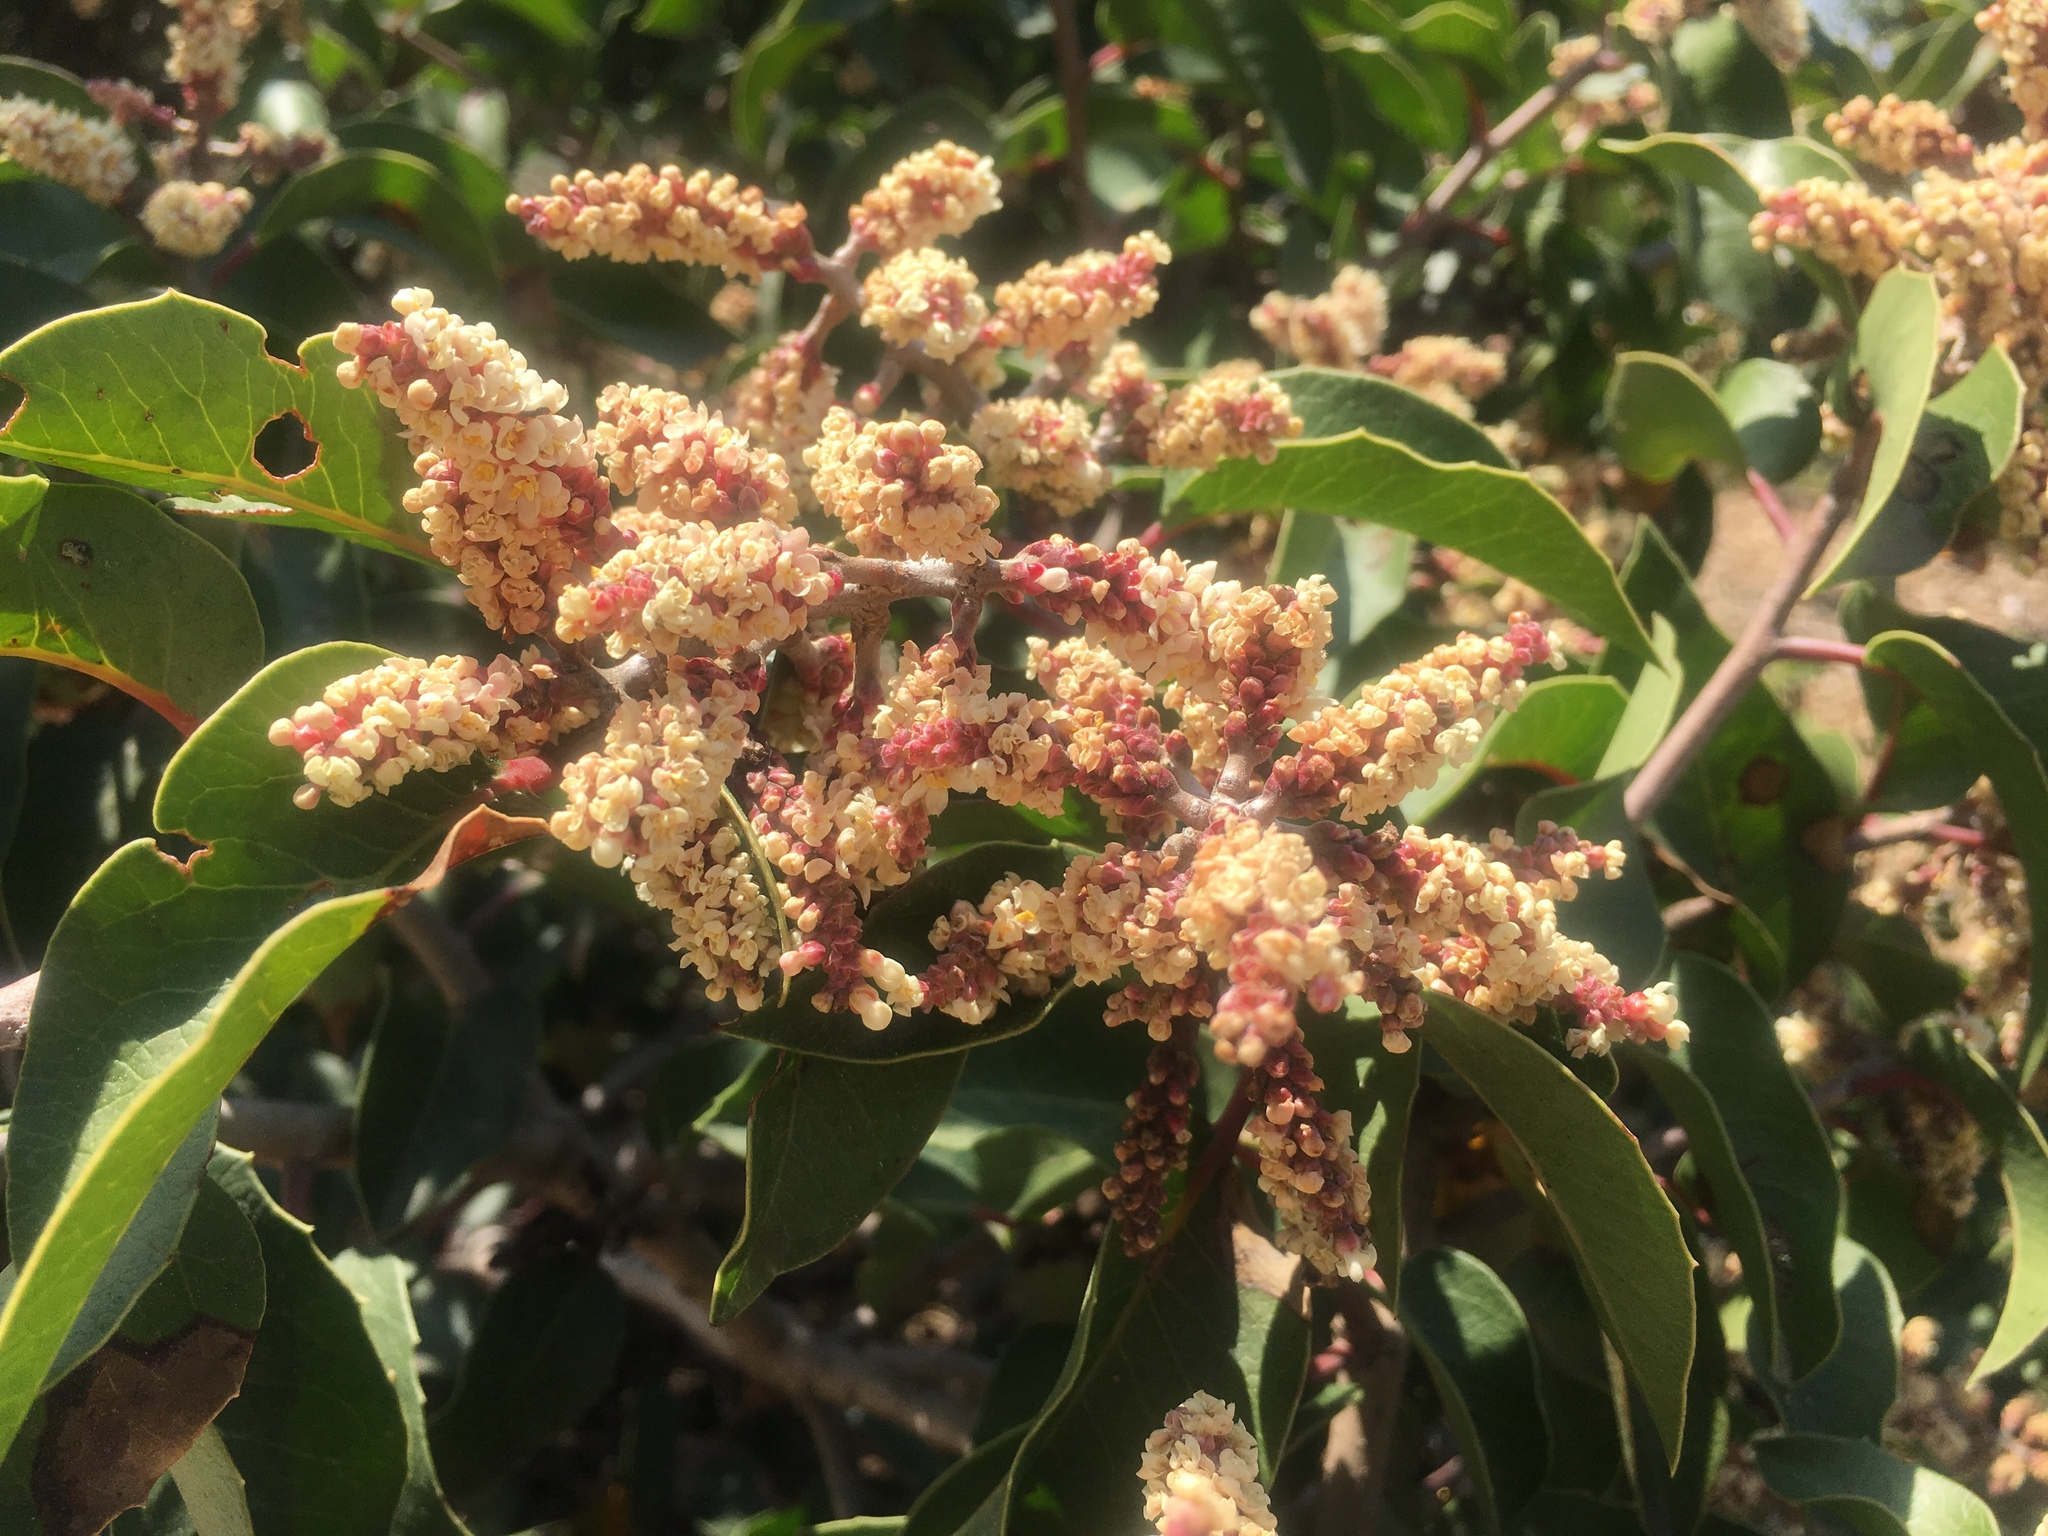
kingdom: Plantae
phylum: Tracheophyta
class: Magnoliopsida
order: Sapindales
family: Anacardiaceae
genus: Rhus
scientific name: Rhus
